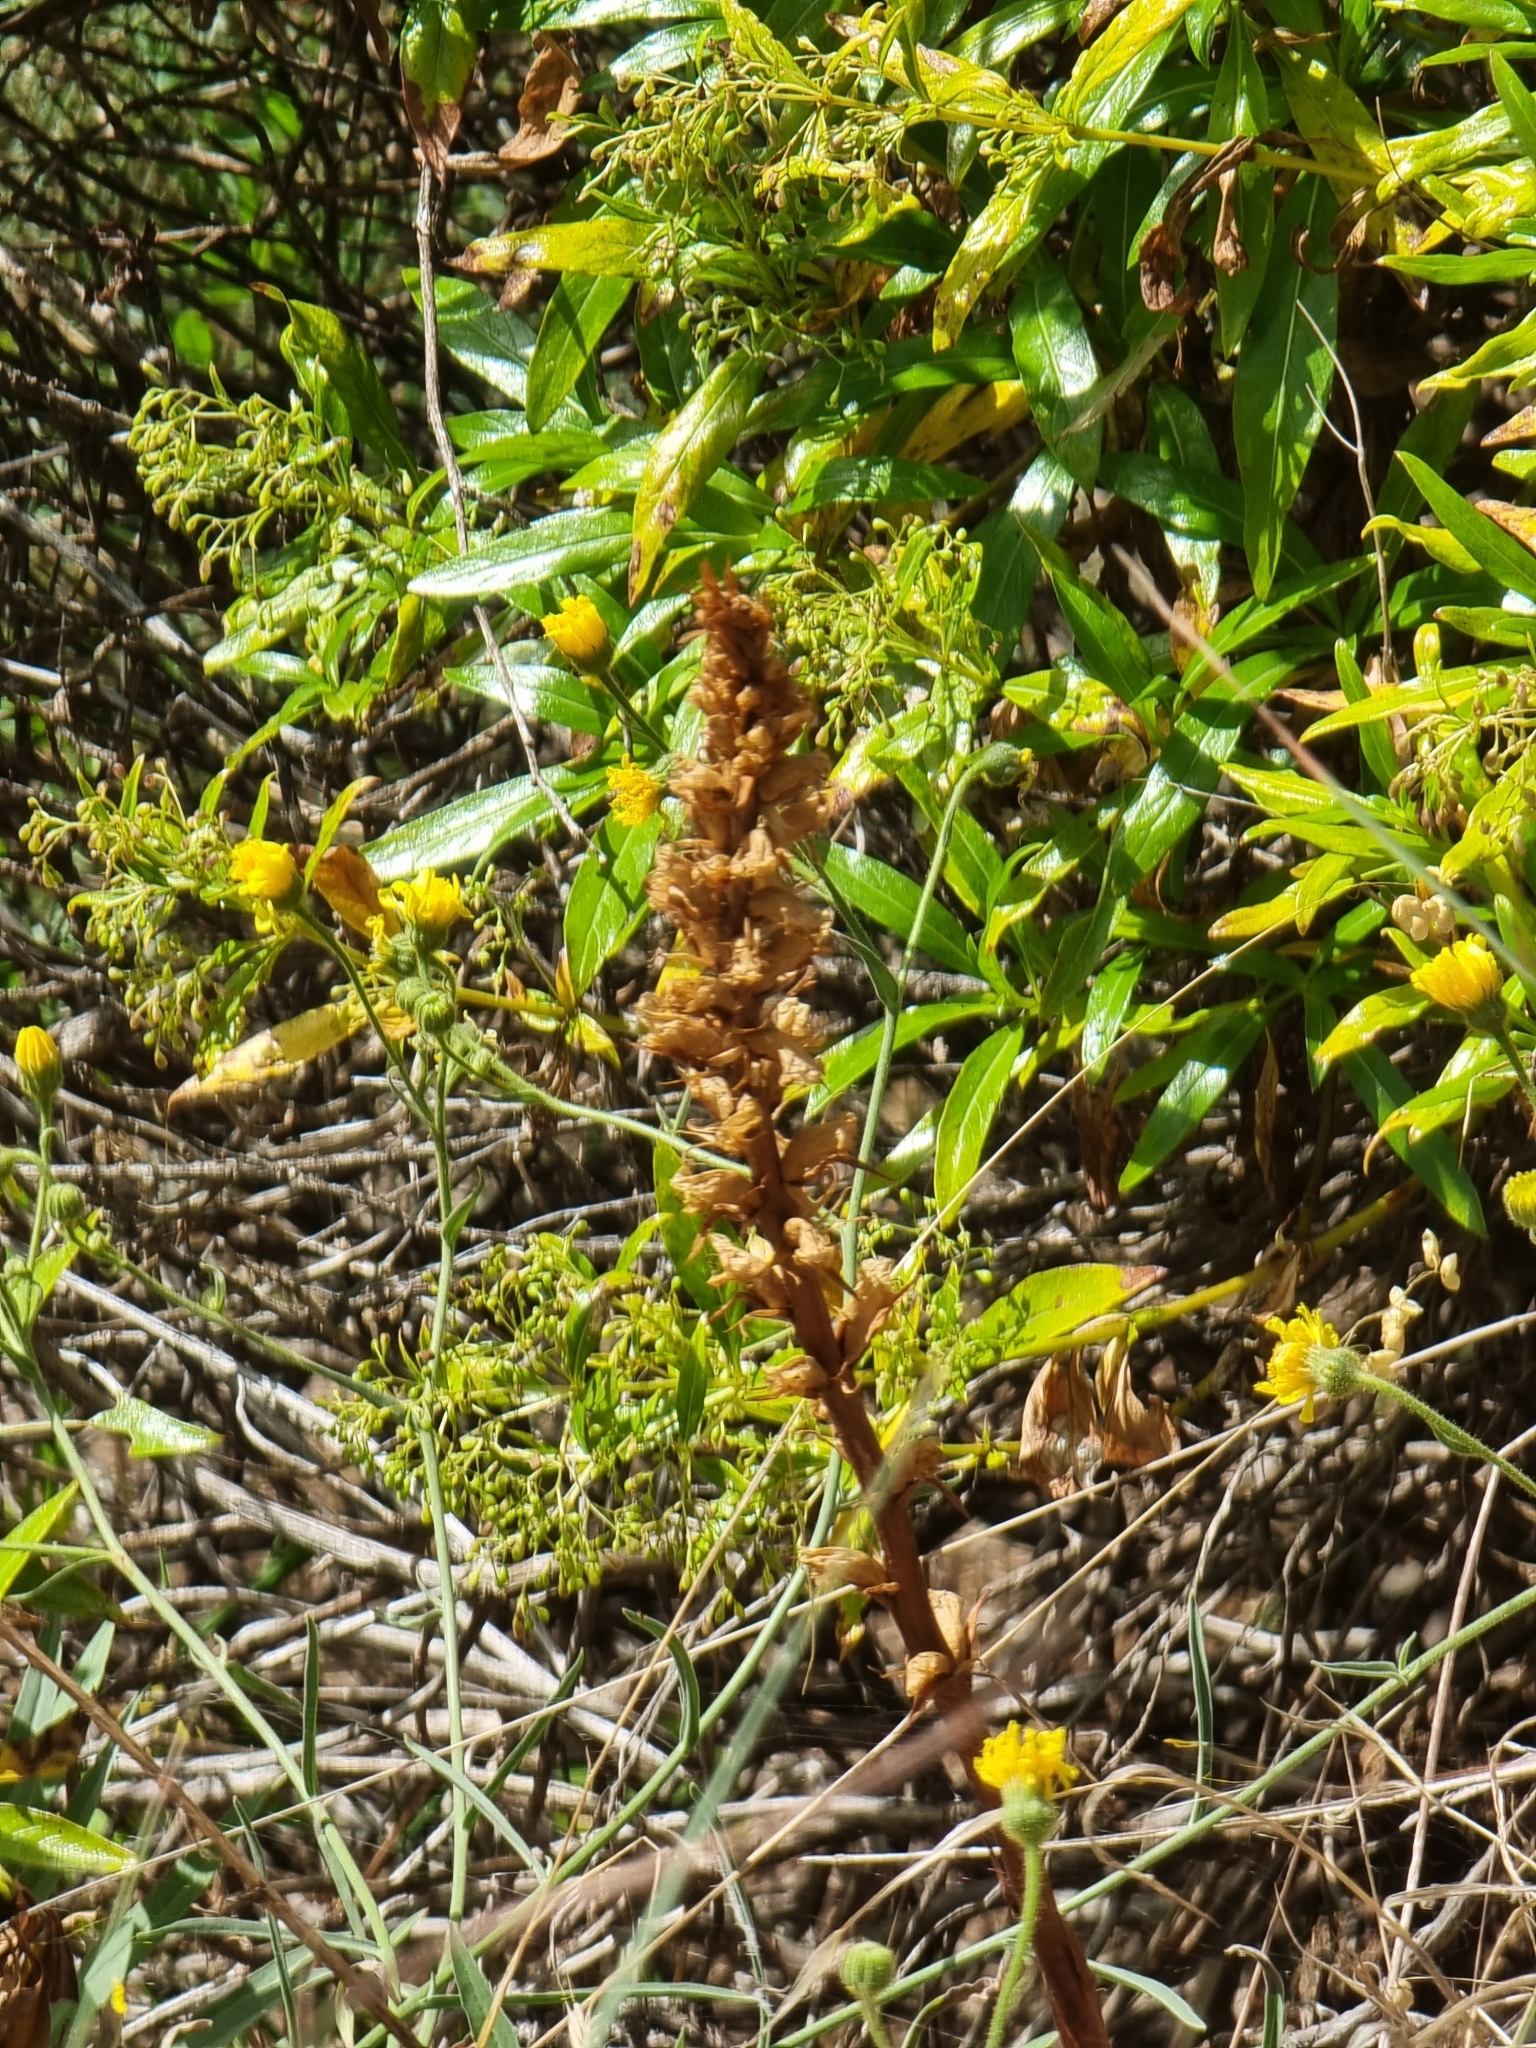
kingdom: Plantae
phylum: Tracheophyta
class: Magnoliopsida
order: Lamiales
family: Orobanchaceae
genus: Orobanche
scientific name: Orobanche minor
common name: Common broomrape
